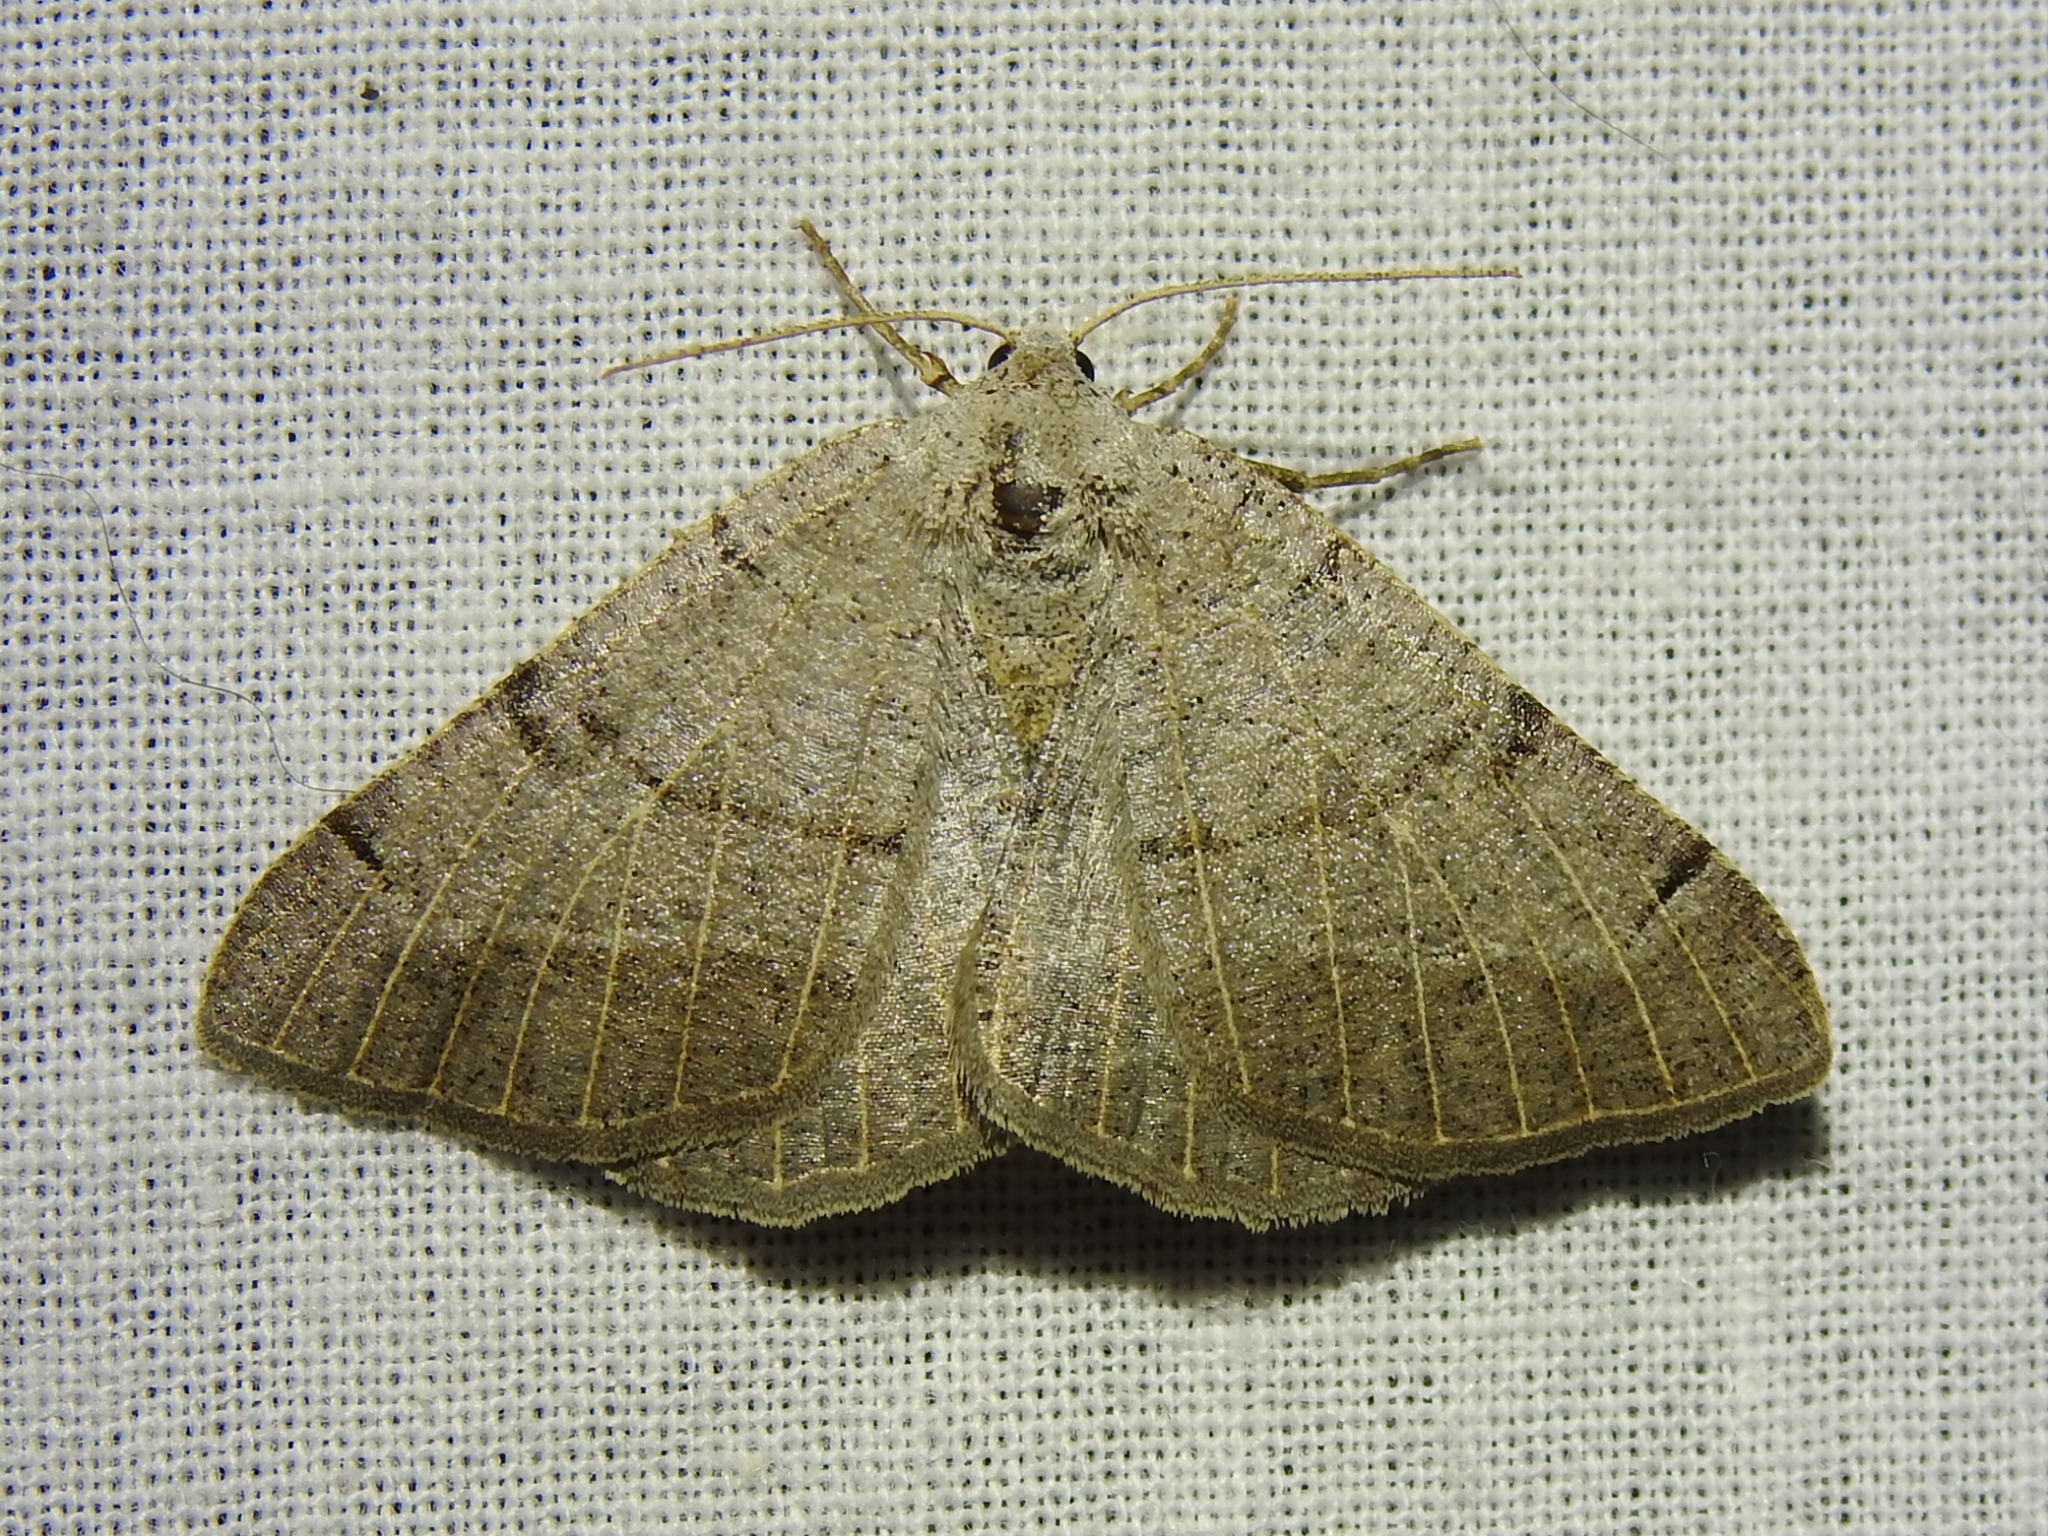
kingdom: Animalia
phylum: Arthropoda
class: Insecta
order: Lepidoptera
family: Geometridae
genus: Isturgia
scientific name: Isturgia dislocaria
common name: Pale-viened enconista
